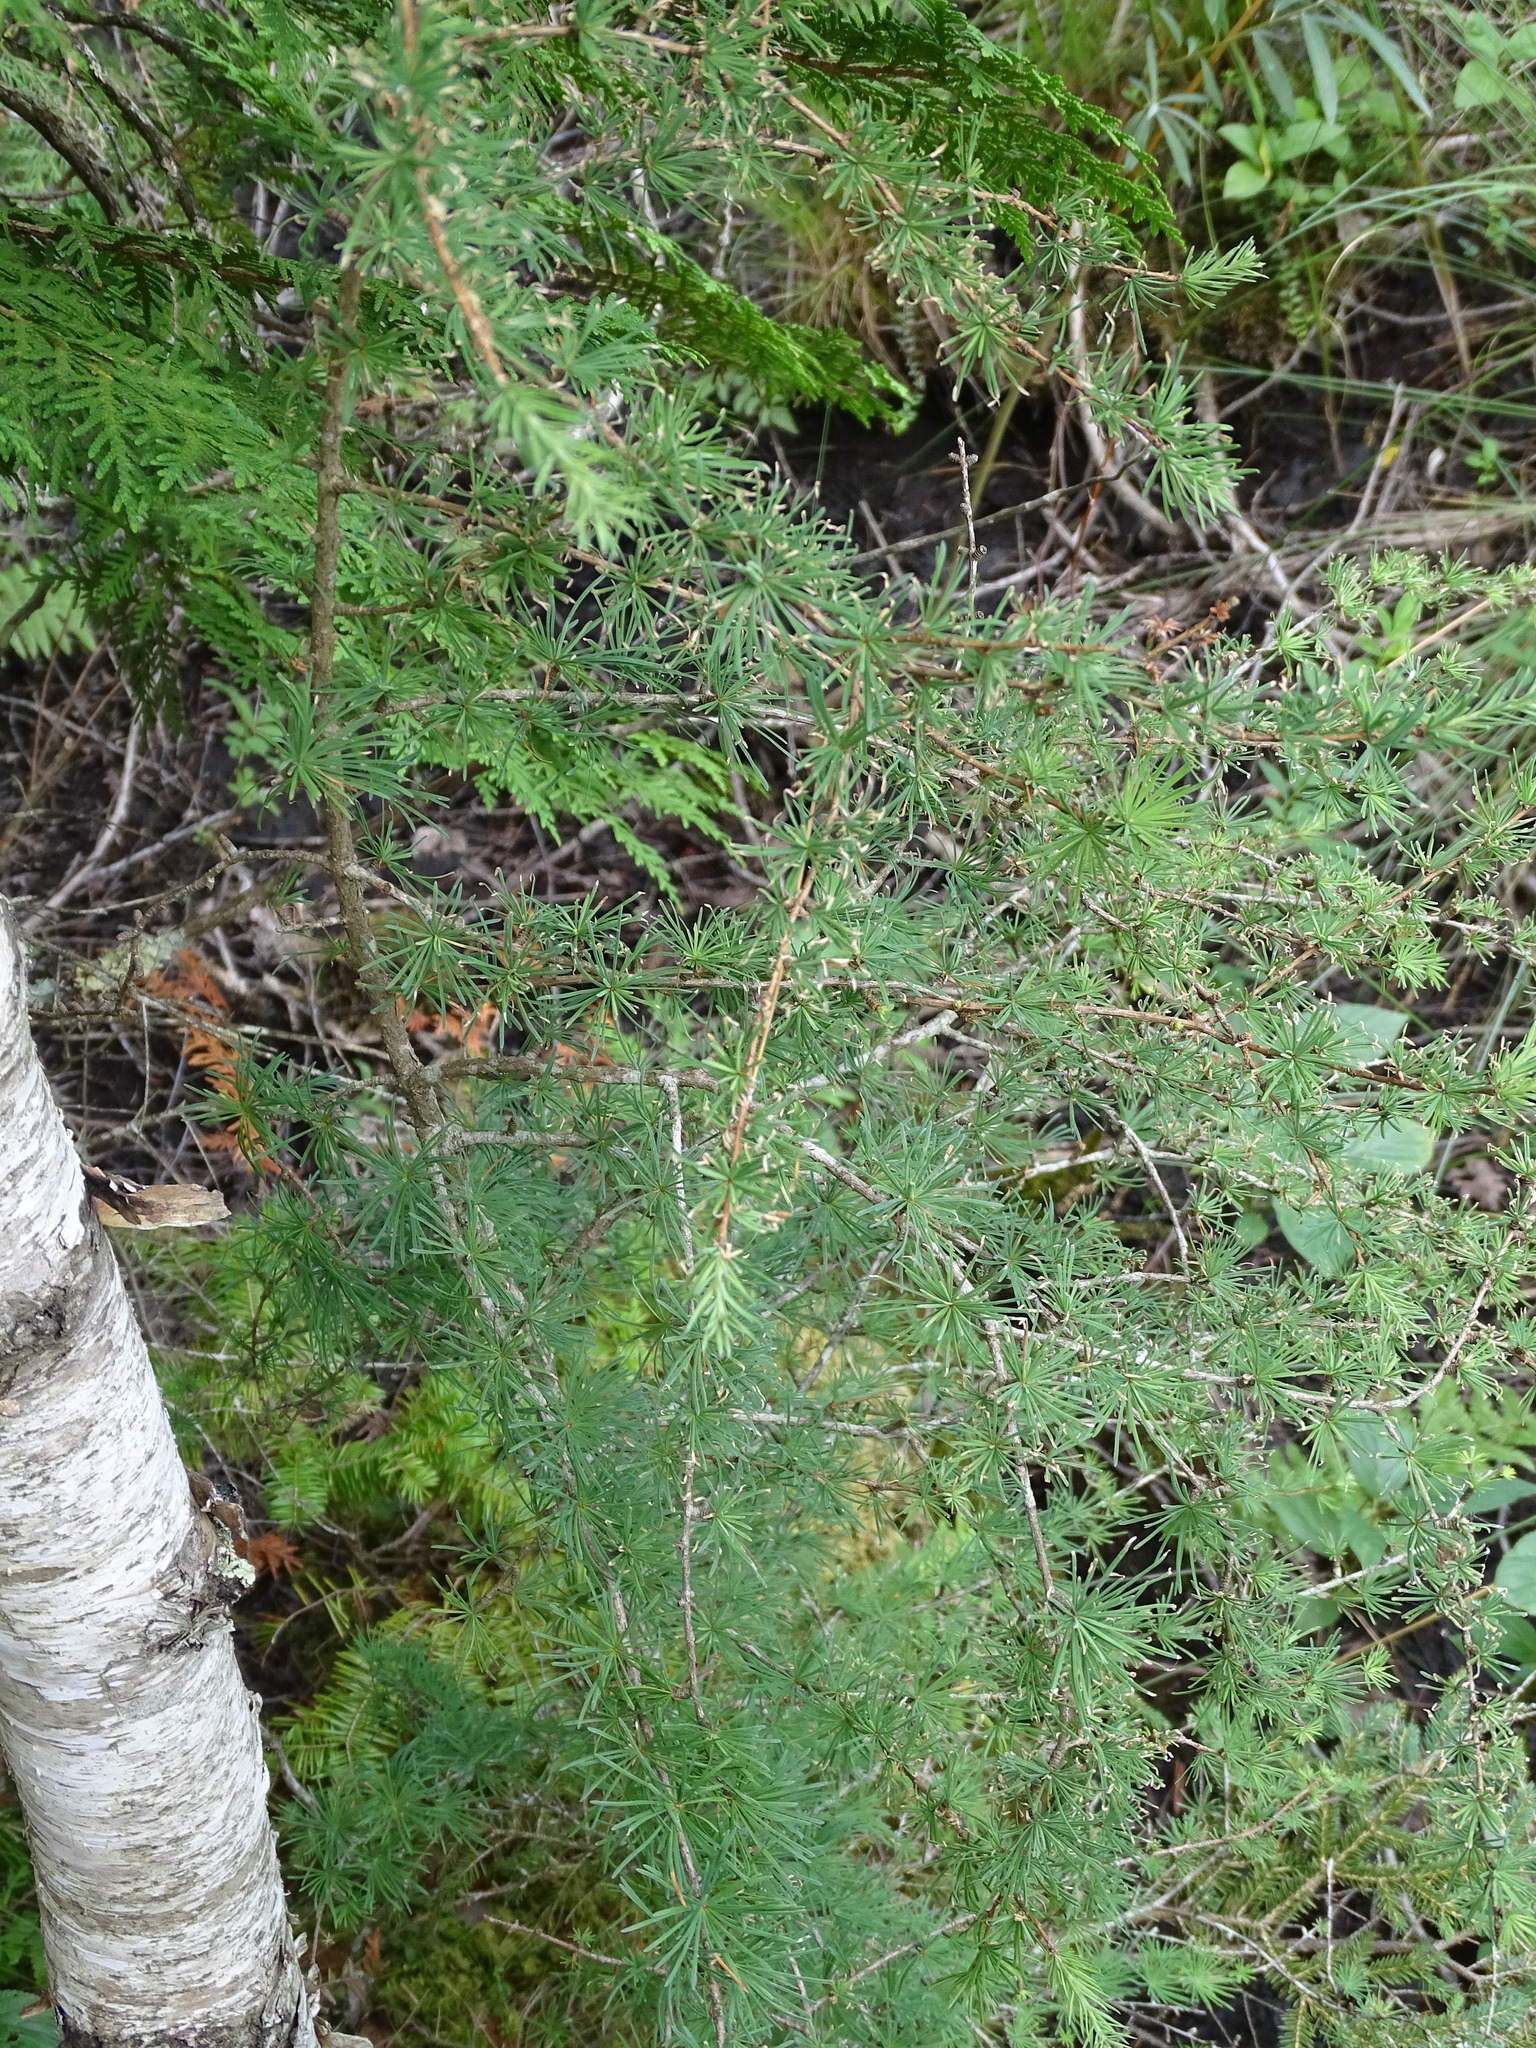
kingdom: Plantae
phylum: Tracheophyta
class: Pinopsida
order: Pinales
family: Pinaceae
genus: Larix
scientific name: Larix laricina
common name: American larch
